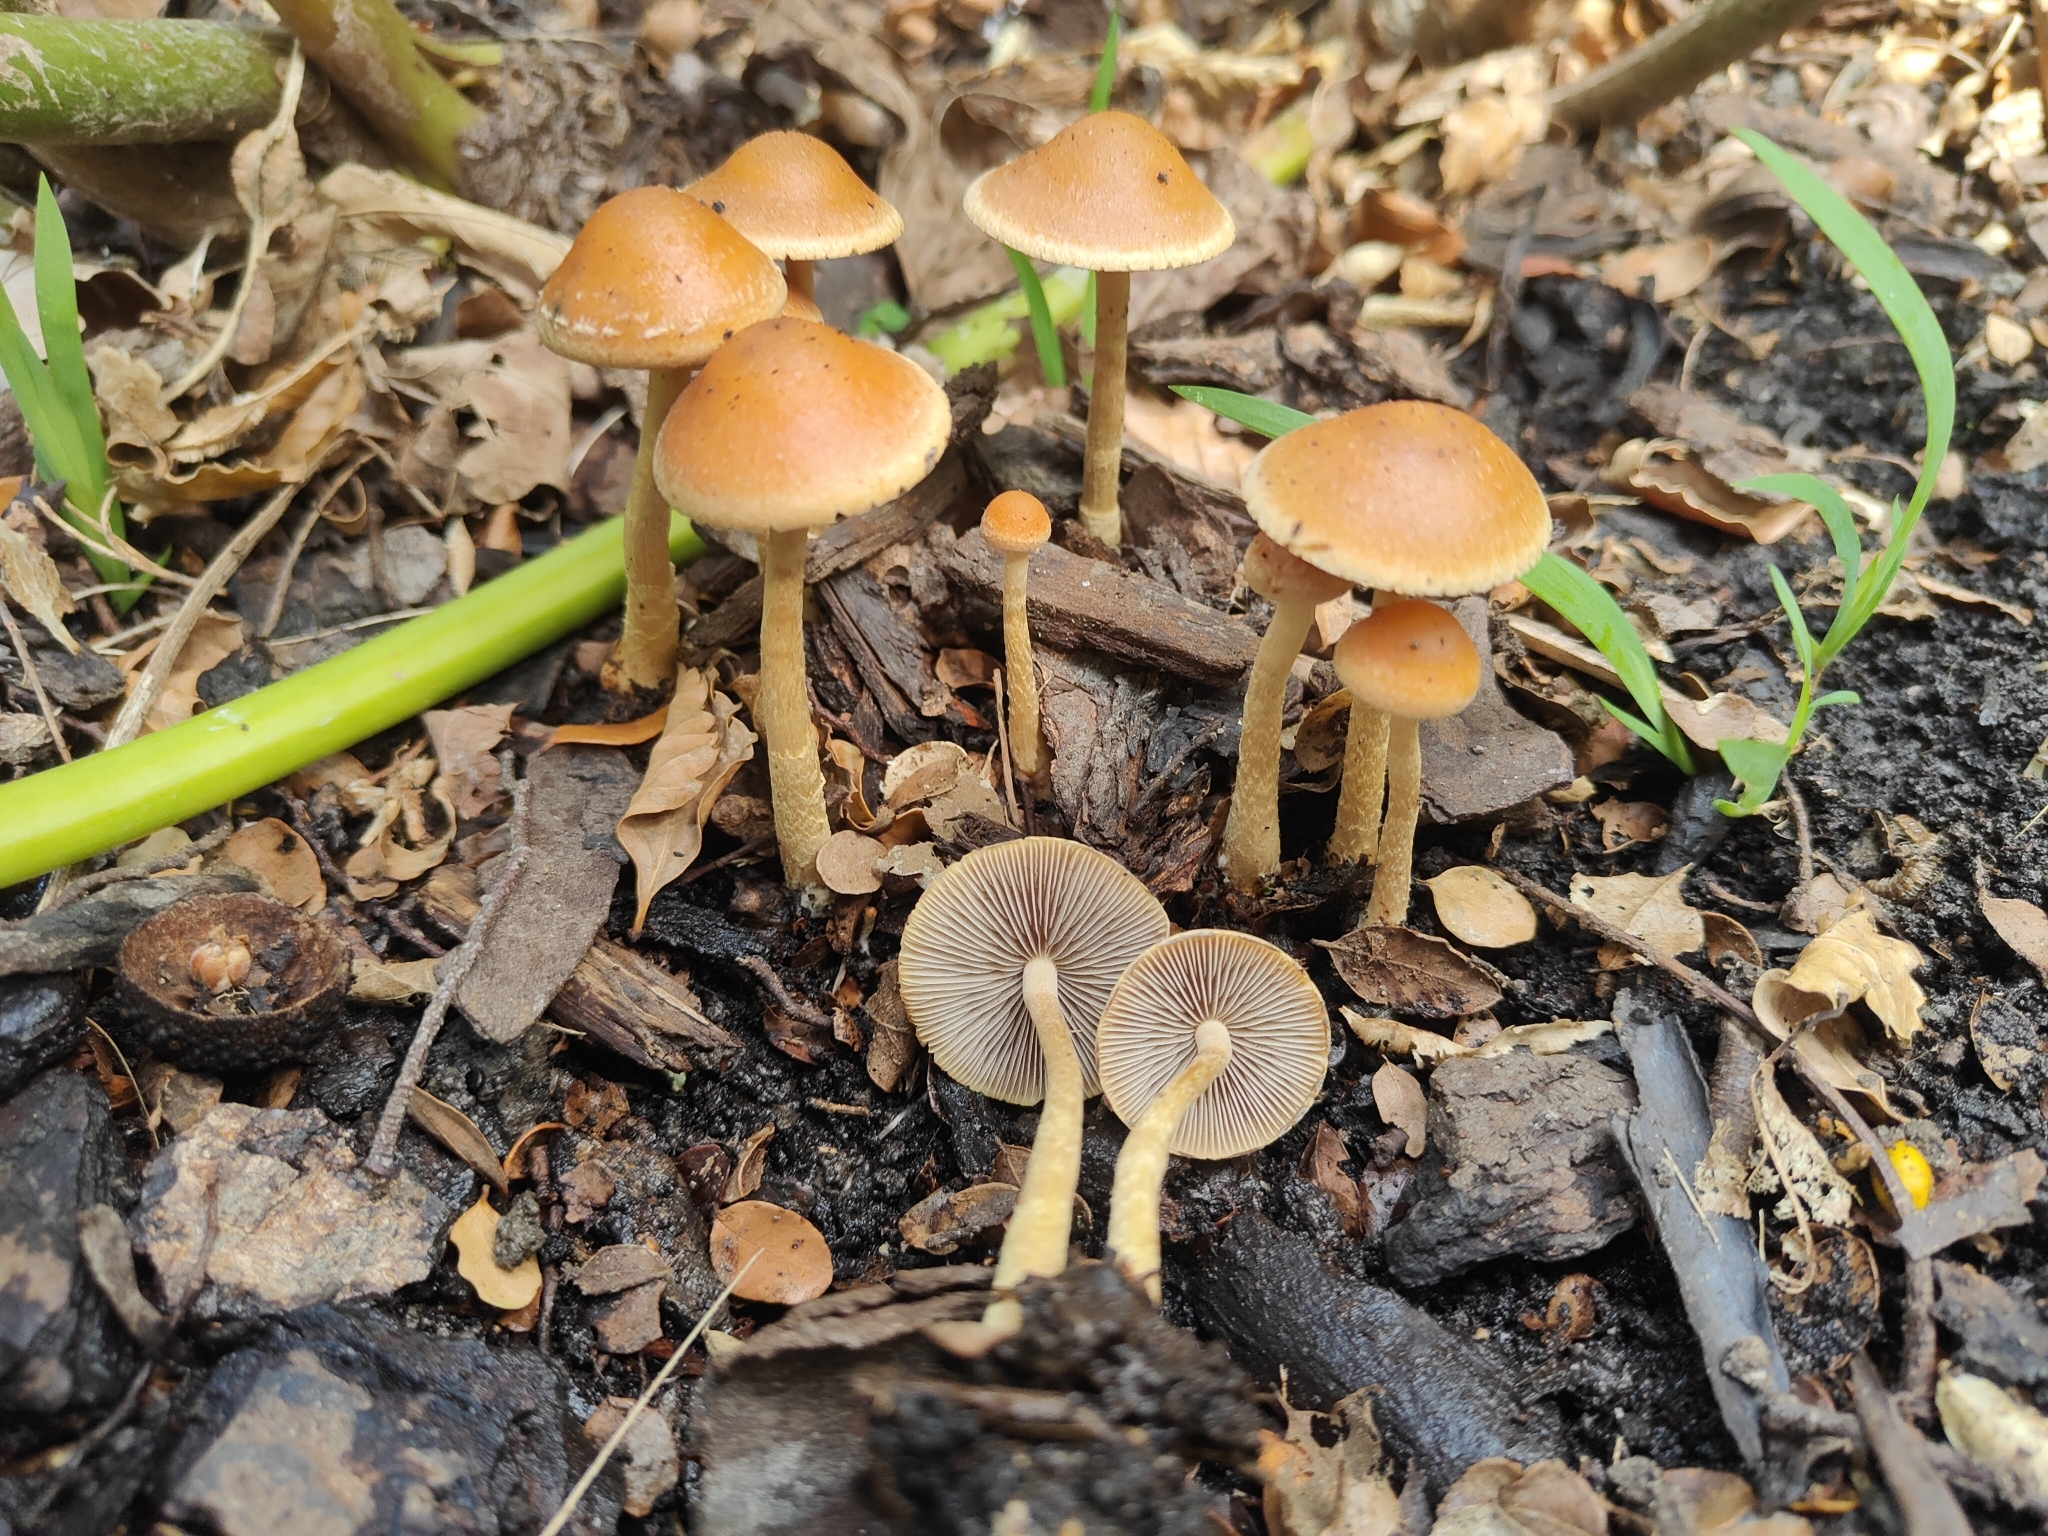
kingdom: Fungi
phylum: Basidiomycota
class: Agaricomycetes
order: Agaricales
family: Tubariaceae
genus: Tubaria
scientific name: Tubaria furfuracea
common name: Scurfy twiglet
